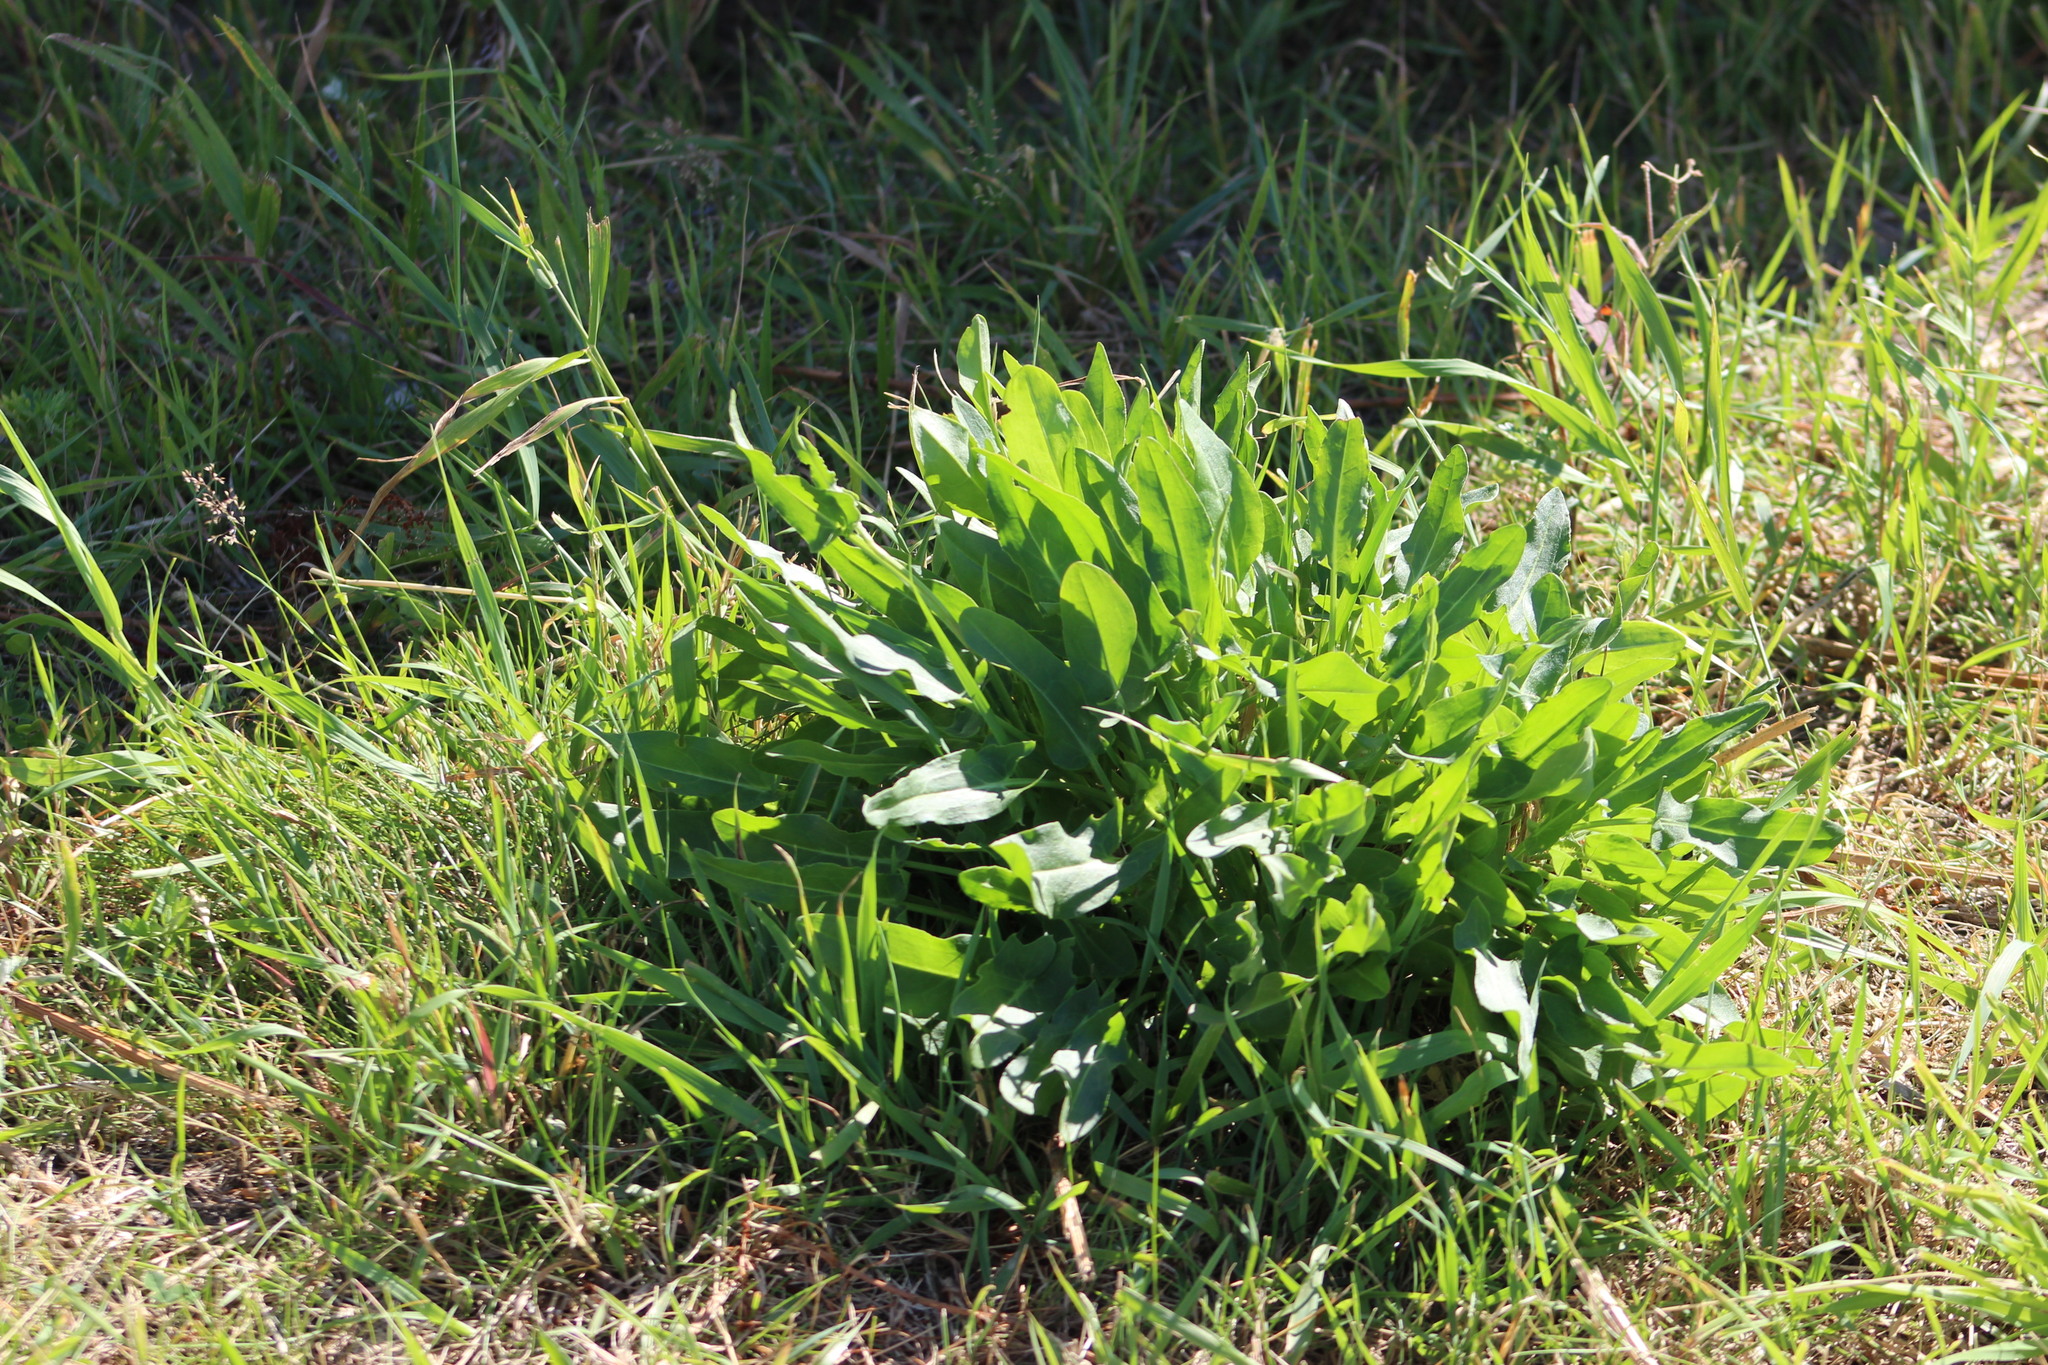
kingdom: Plantae
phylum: Tracheophyta
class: Magnoliopsida
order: Caryophyllales
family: Polygonaceae
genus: Rumex
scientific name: Rumex acetosa
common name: Garden sorrel
